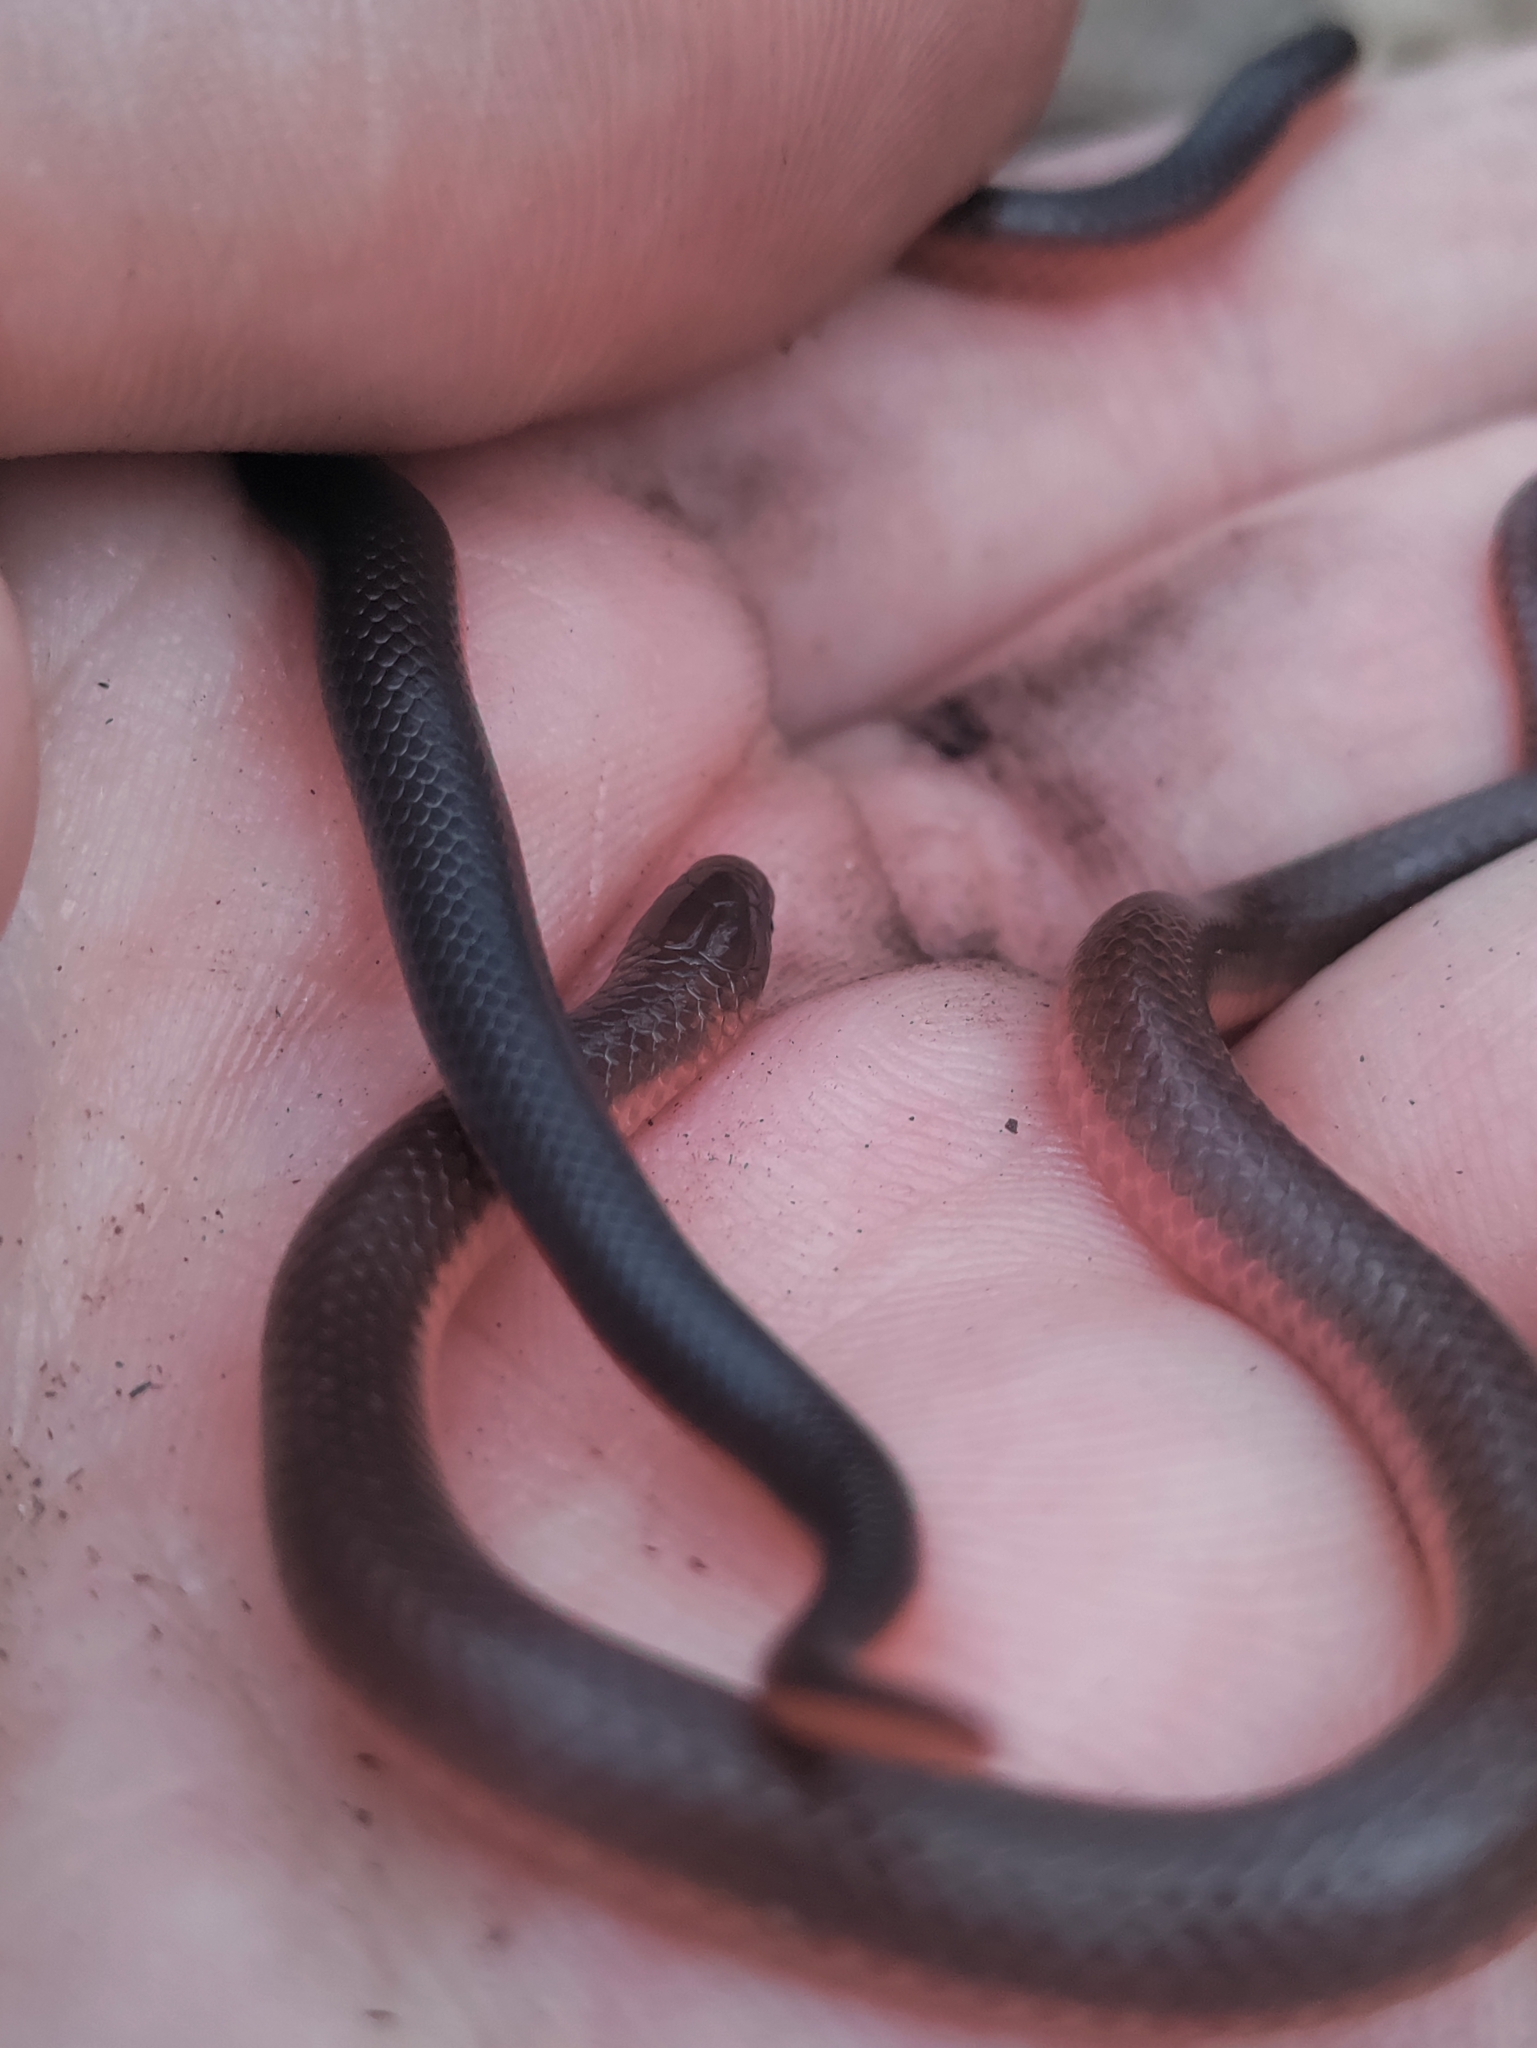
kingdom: Animalia
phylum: Chordata
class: Squamata
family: Colubridae
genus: Carphophis
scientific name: Carphophis amoenus
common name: Eastern worm snake
